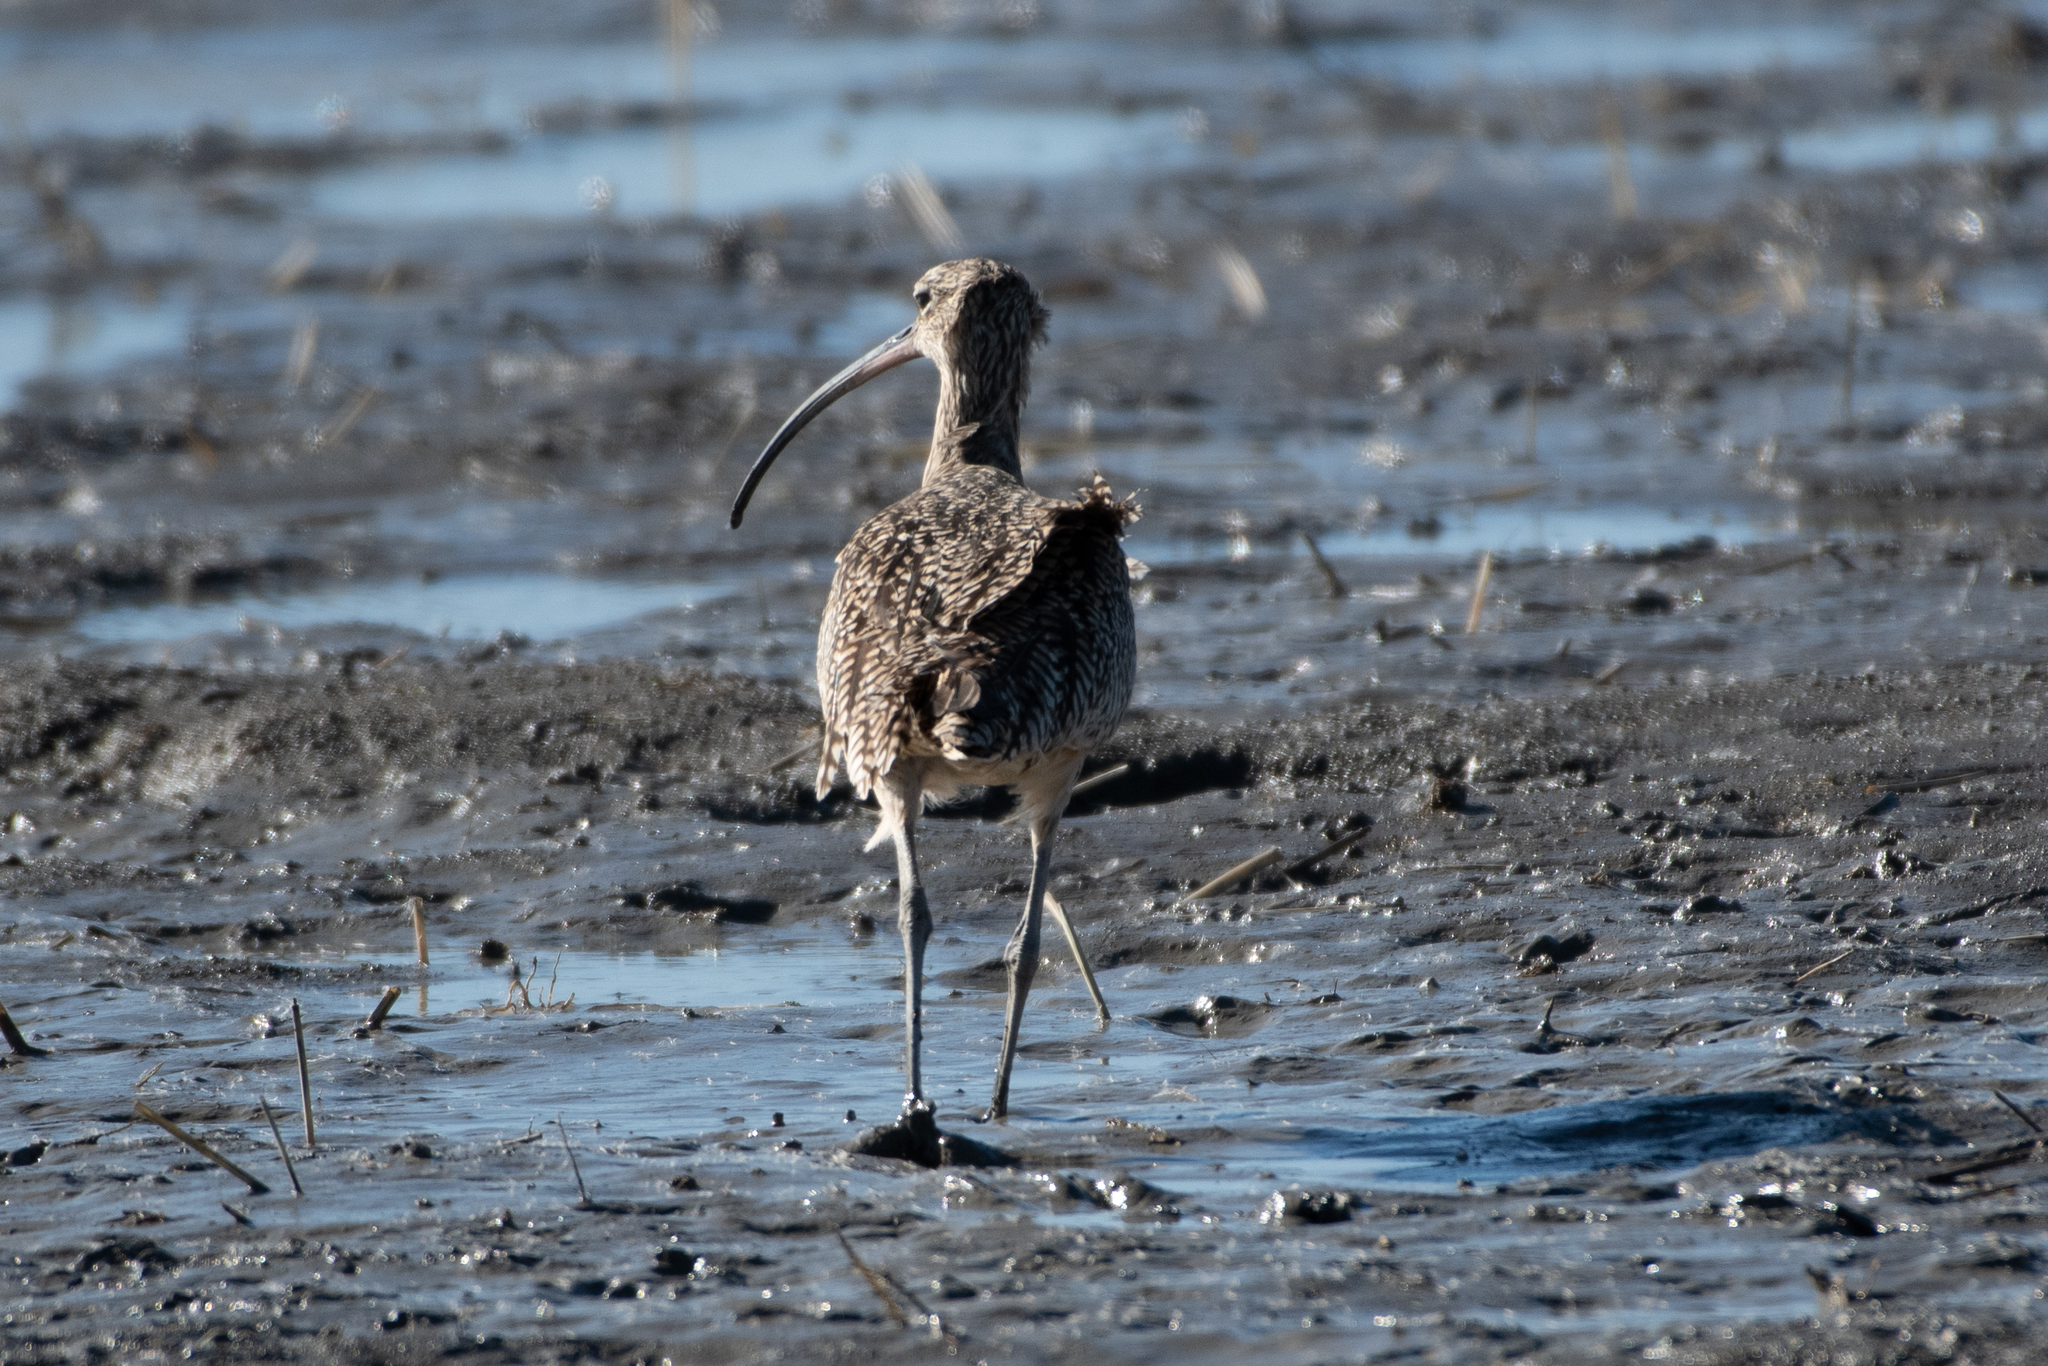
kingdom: Animalia
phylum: Chordata
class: Aves
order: Charadriiformes
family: Scolopacidae
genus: Numenius
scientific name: Numenius americanus
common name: Long-billed curlew
